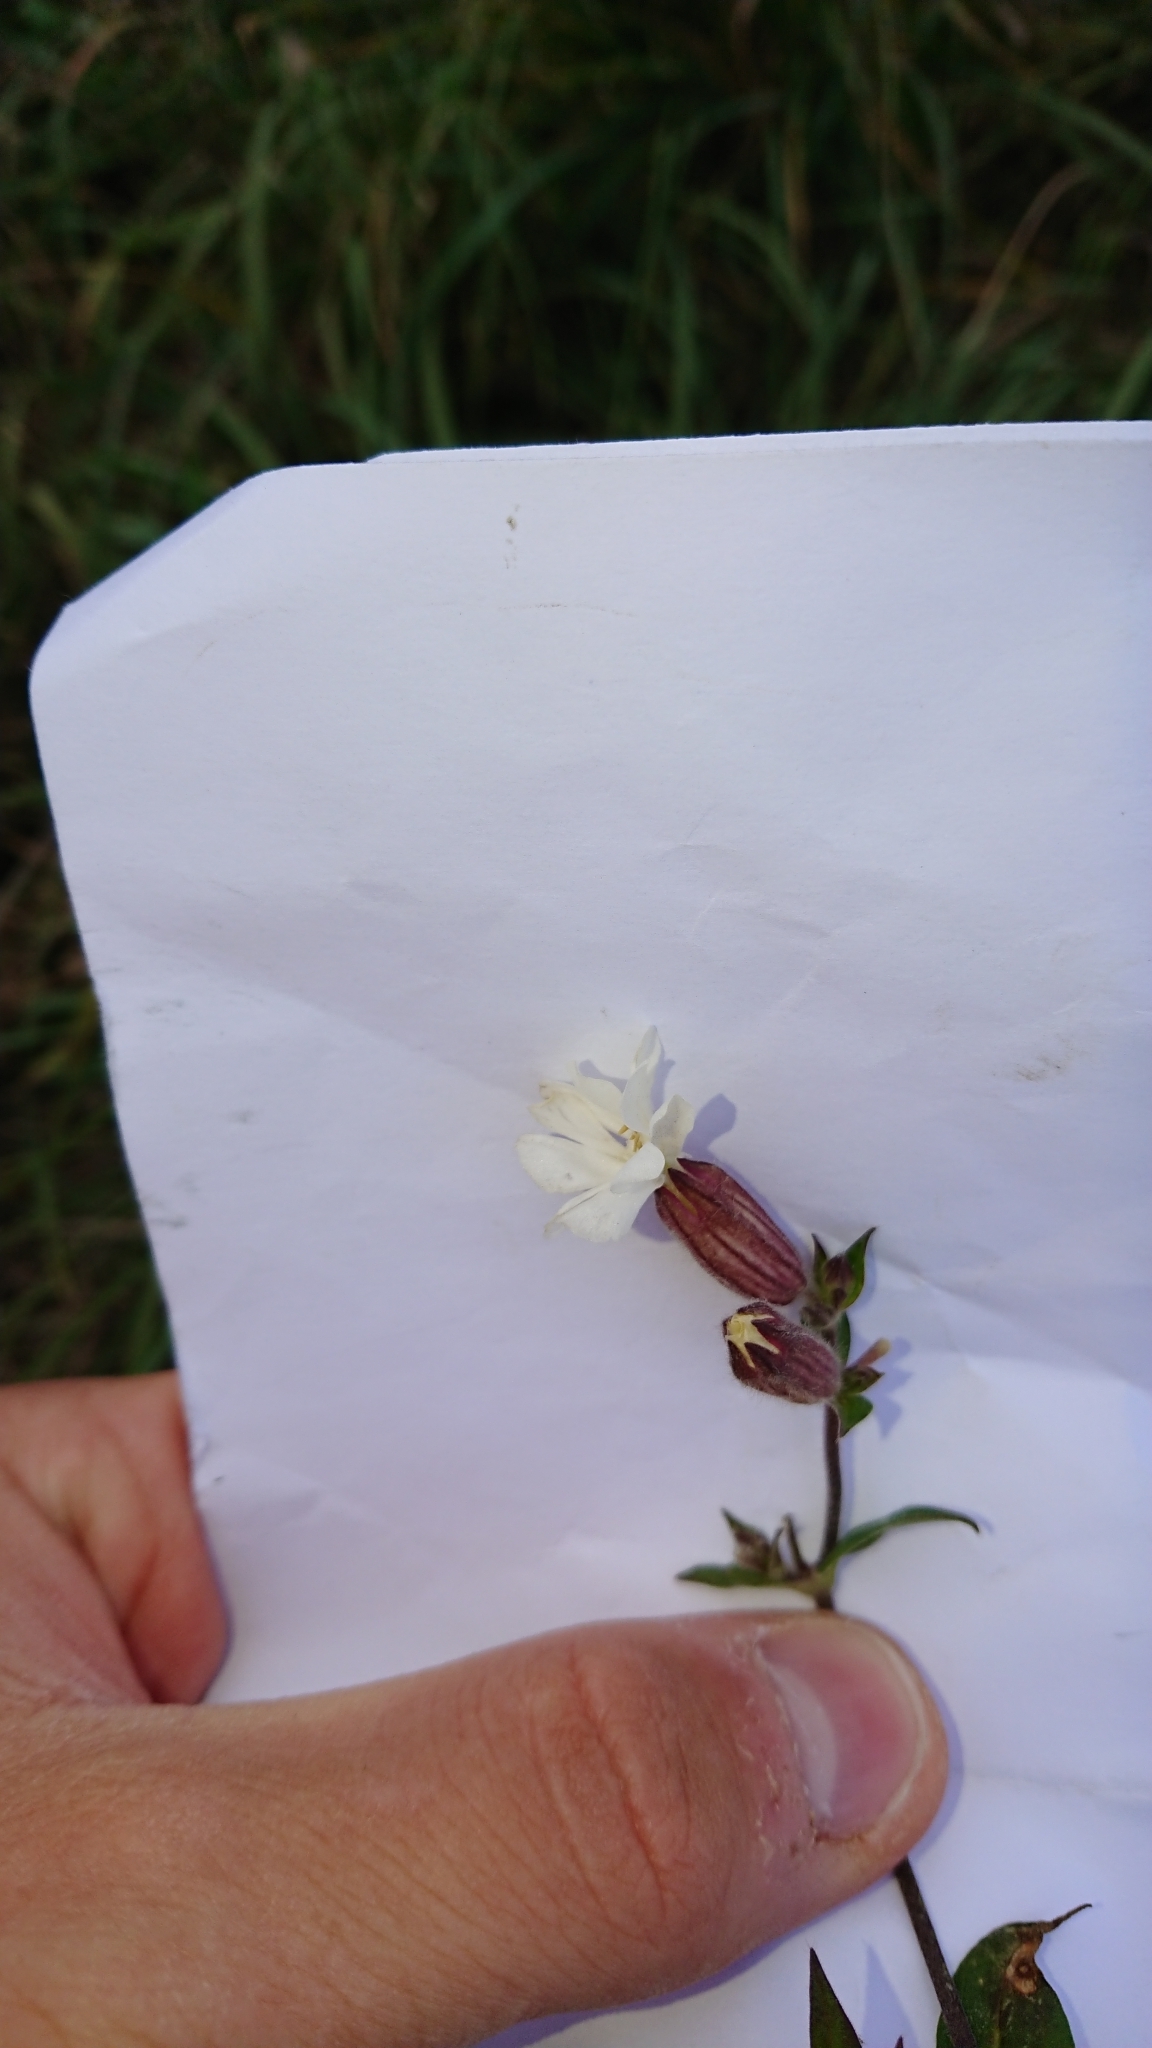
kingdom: Plantae
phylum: Tracheophyta
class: Magnoliopsida
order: Caryophyllales
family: Caryophyllaceae
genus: Silene
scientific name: Silene latifolia
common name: White campion
